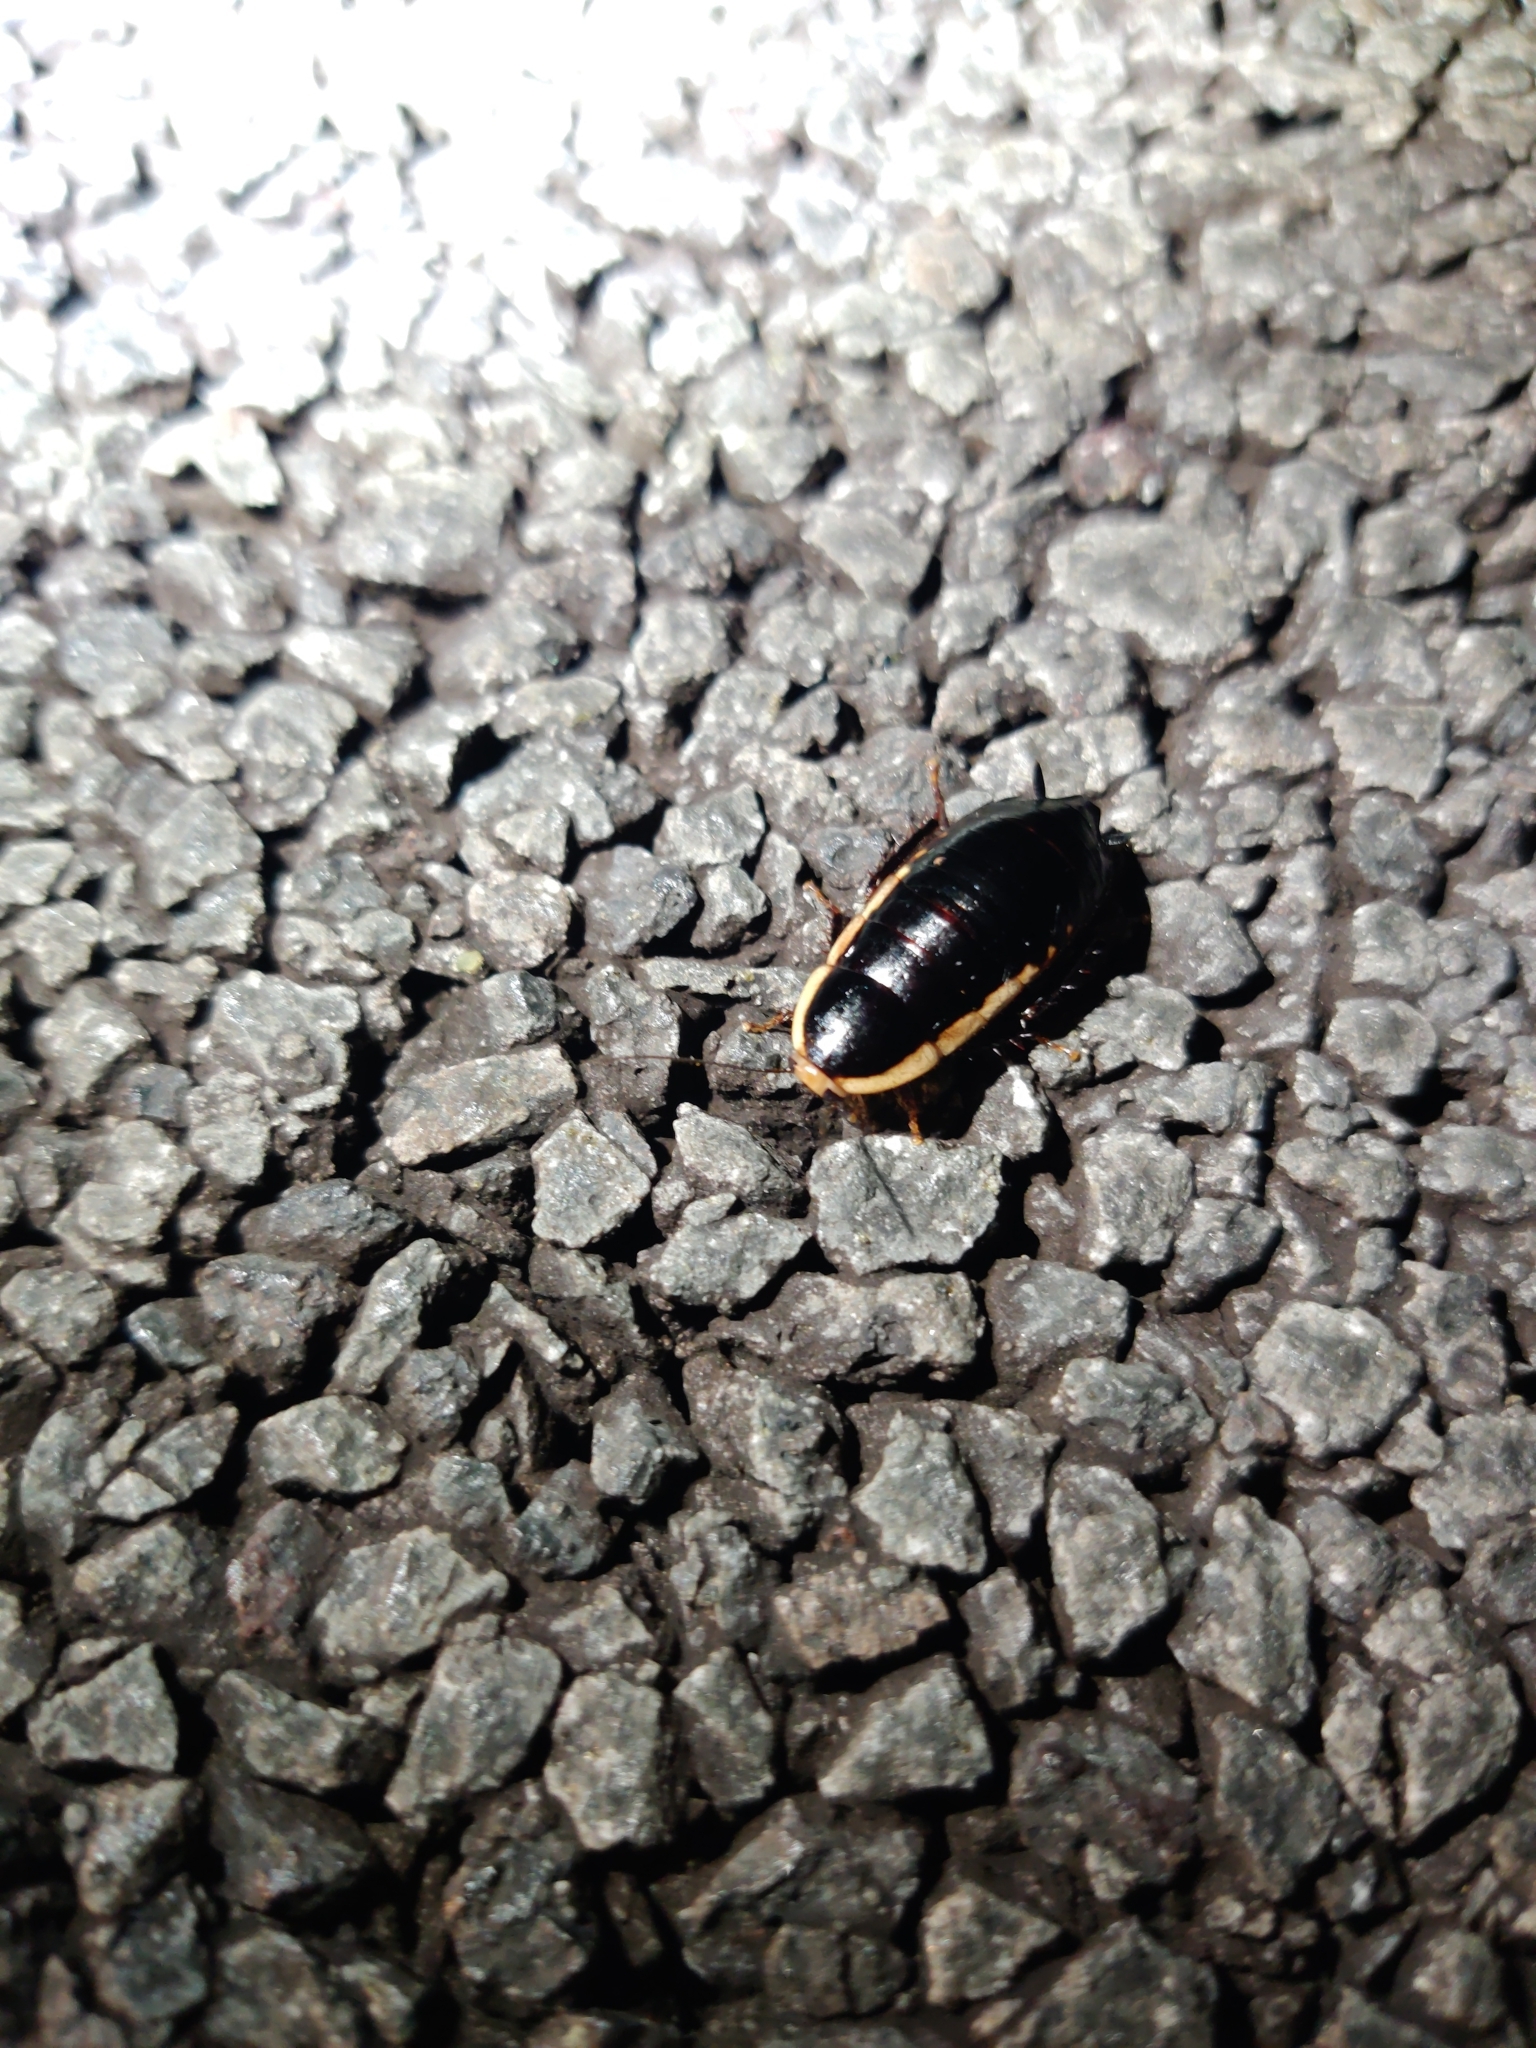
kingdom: Animalia
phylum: Arthropoda
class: Insecta
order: Blattodea
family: Blattidae
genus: Melanozosteria
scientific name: Melanozosteria soror
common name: White-edged wingless cockroach
